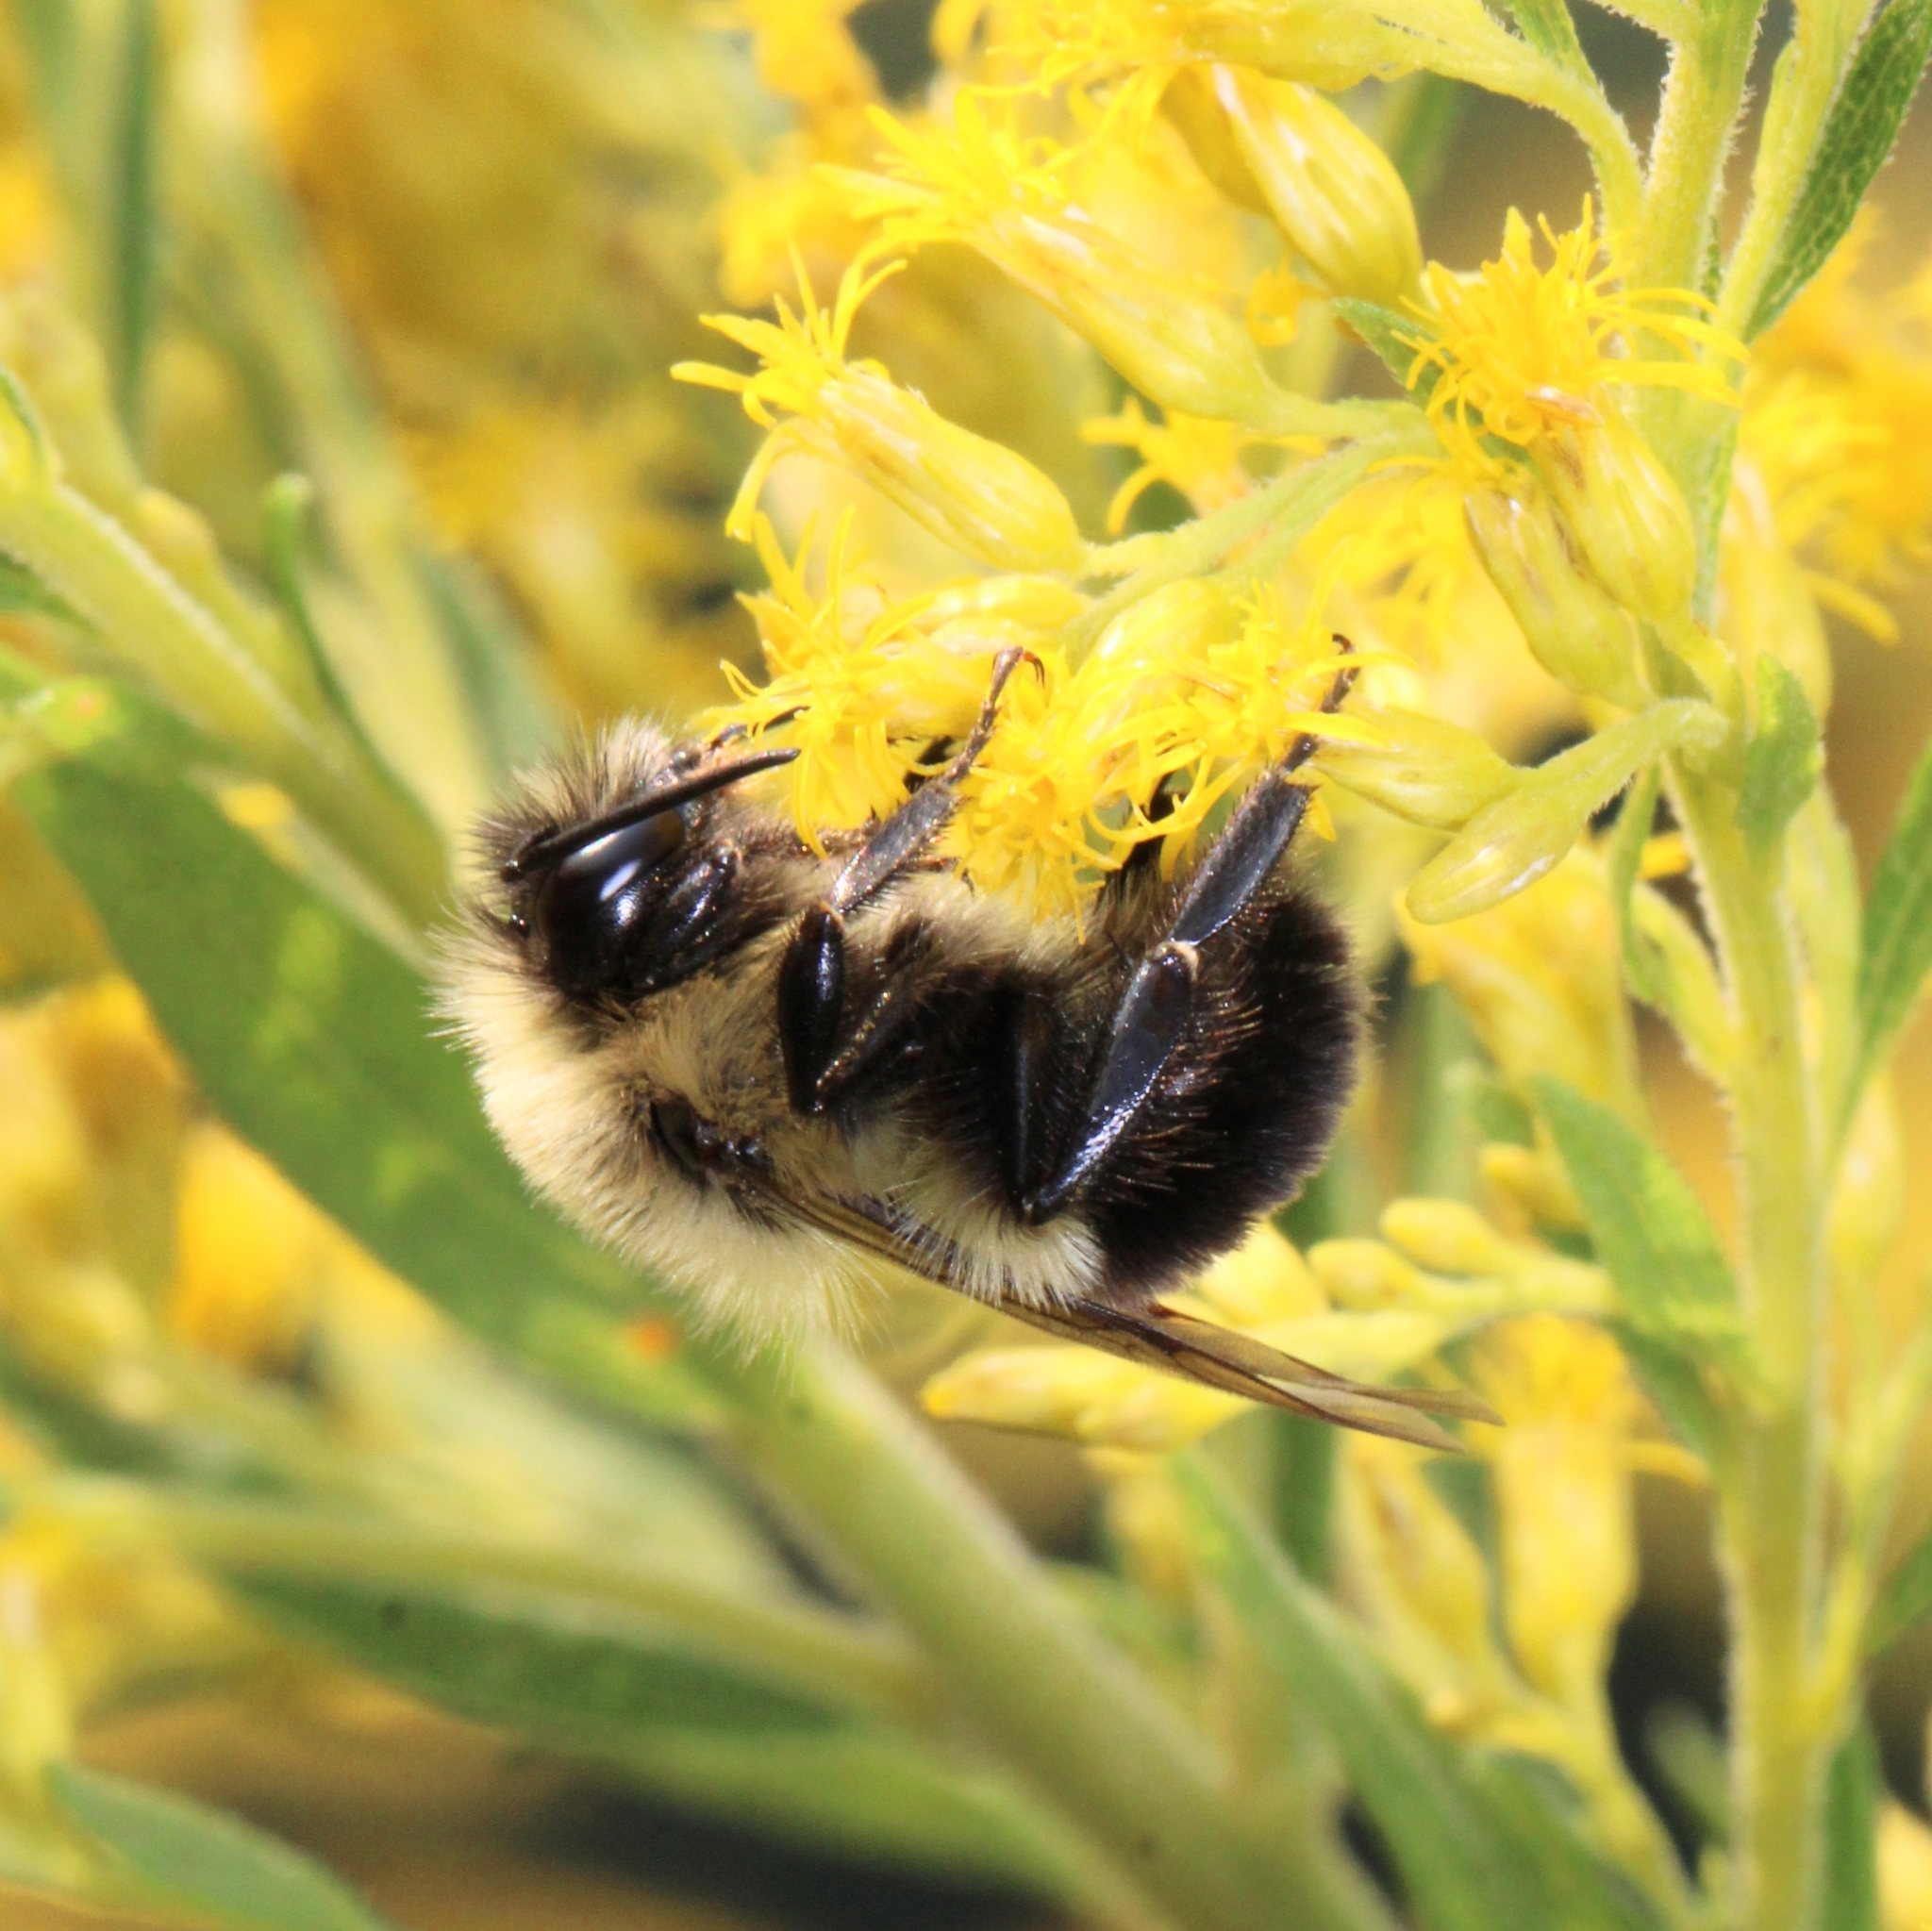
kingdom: Animalia
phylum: Arthropoda
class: Insecta
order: Hymenoptera
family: Apidae
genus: Bombus
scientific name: Bombus impatiens
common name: Common eastern bumble bee
